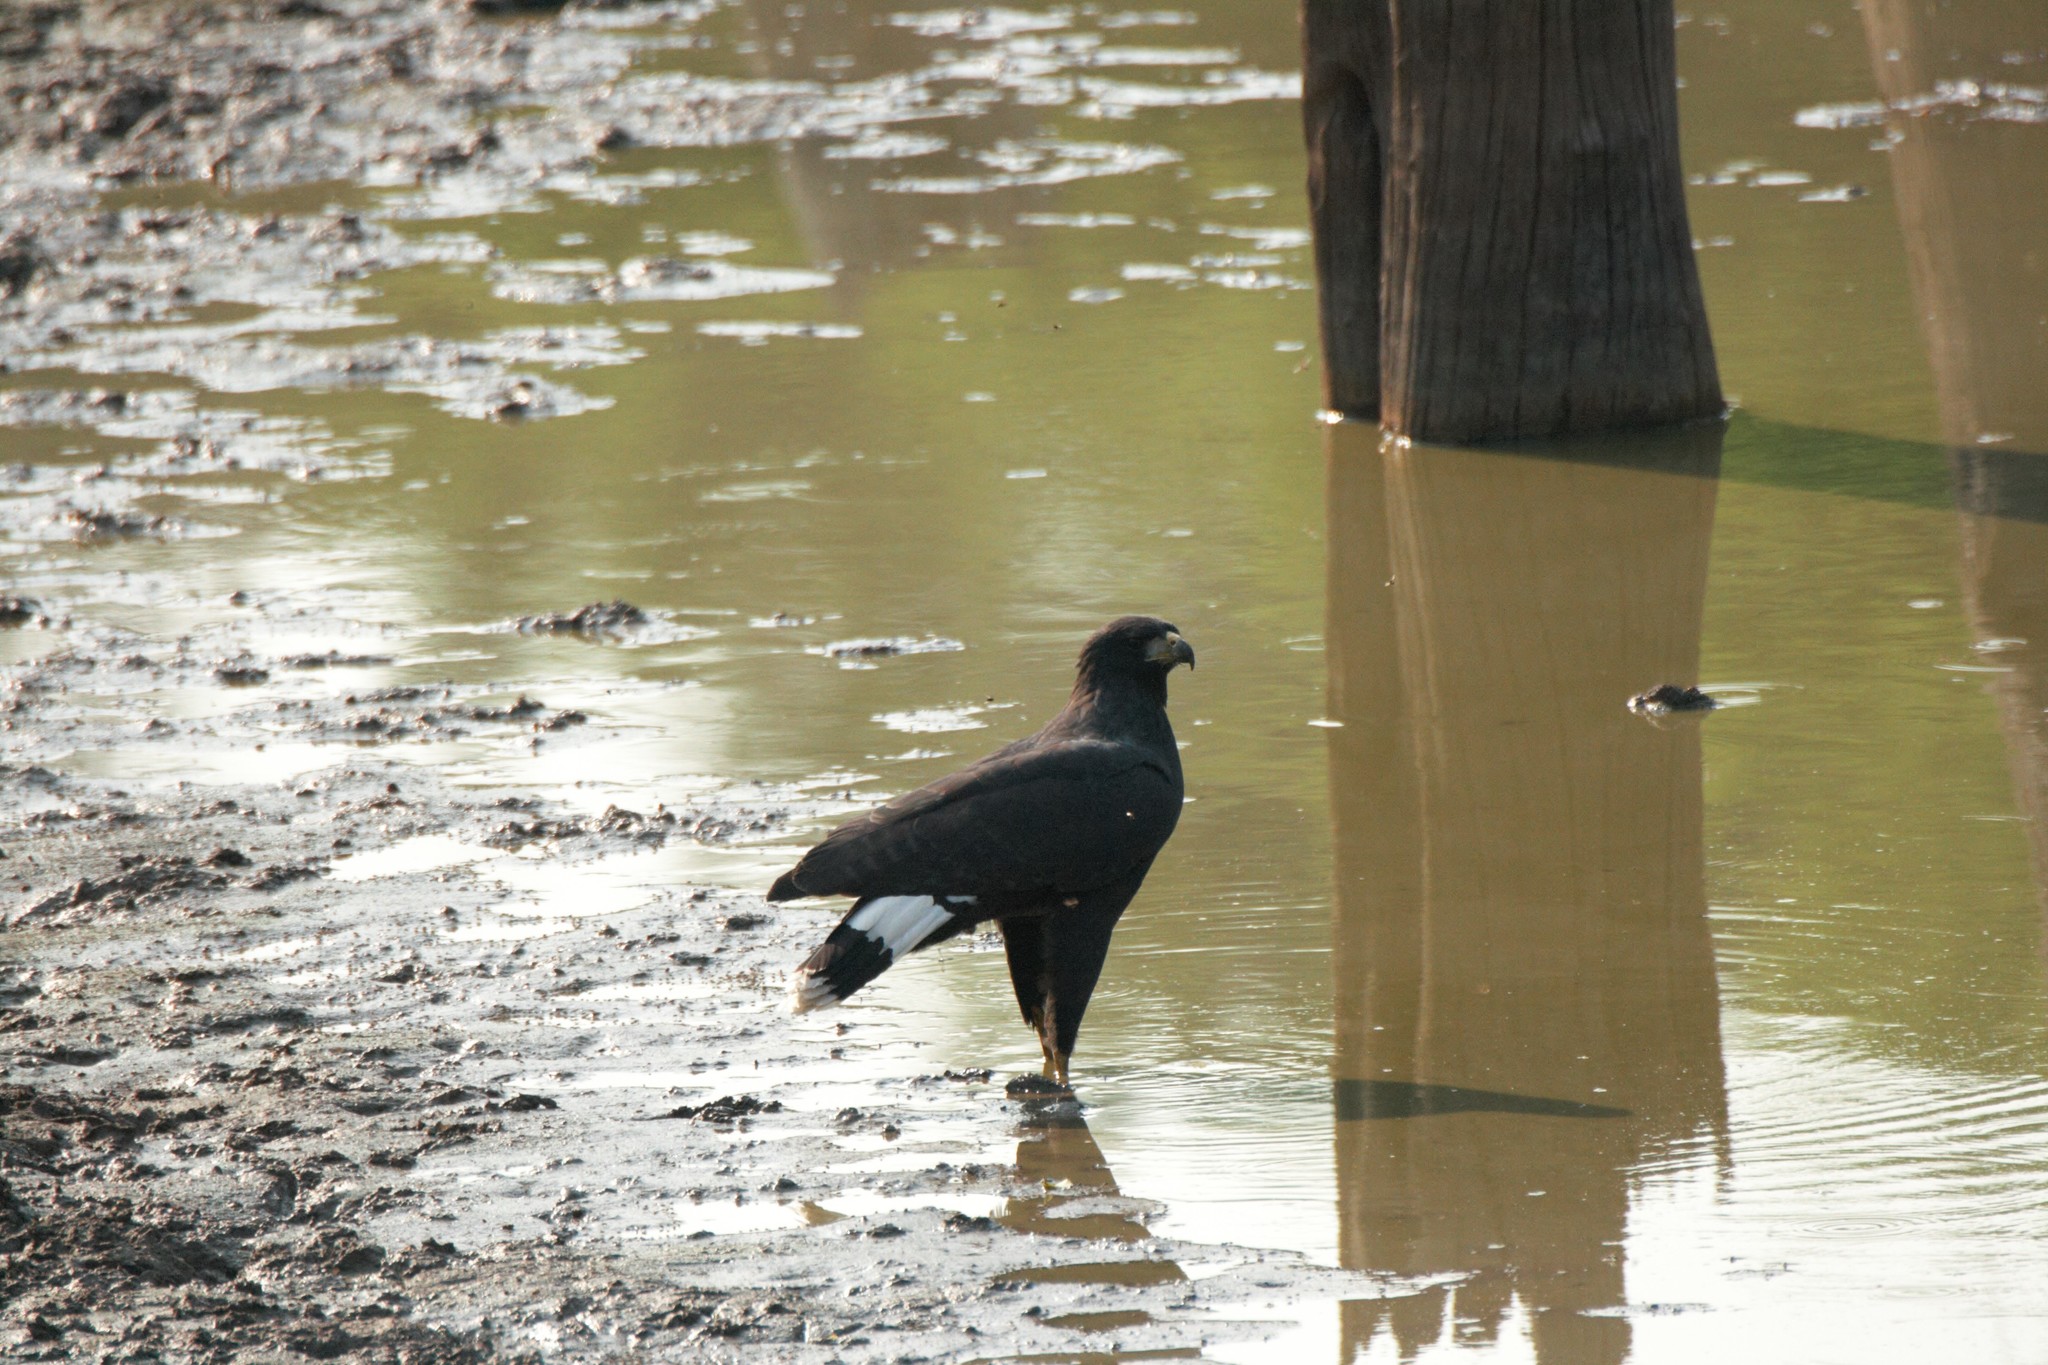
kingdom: Animalia
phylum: Chordata
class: Aves
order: Accipitriformes
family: Accipitridae
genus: Buteogallus
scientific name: Buteogallus urubitinga
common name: Great black hawk
